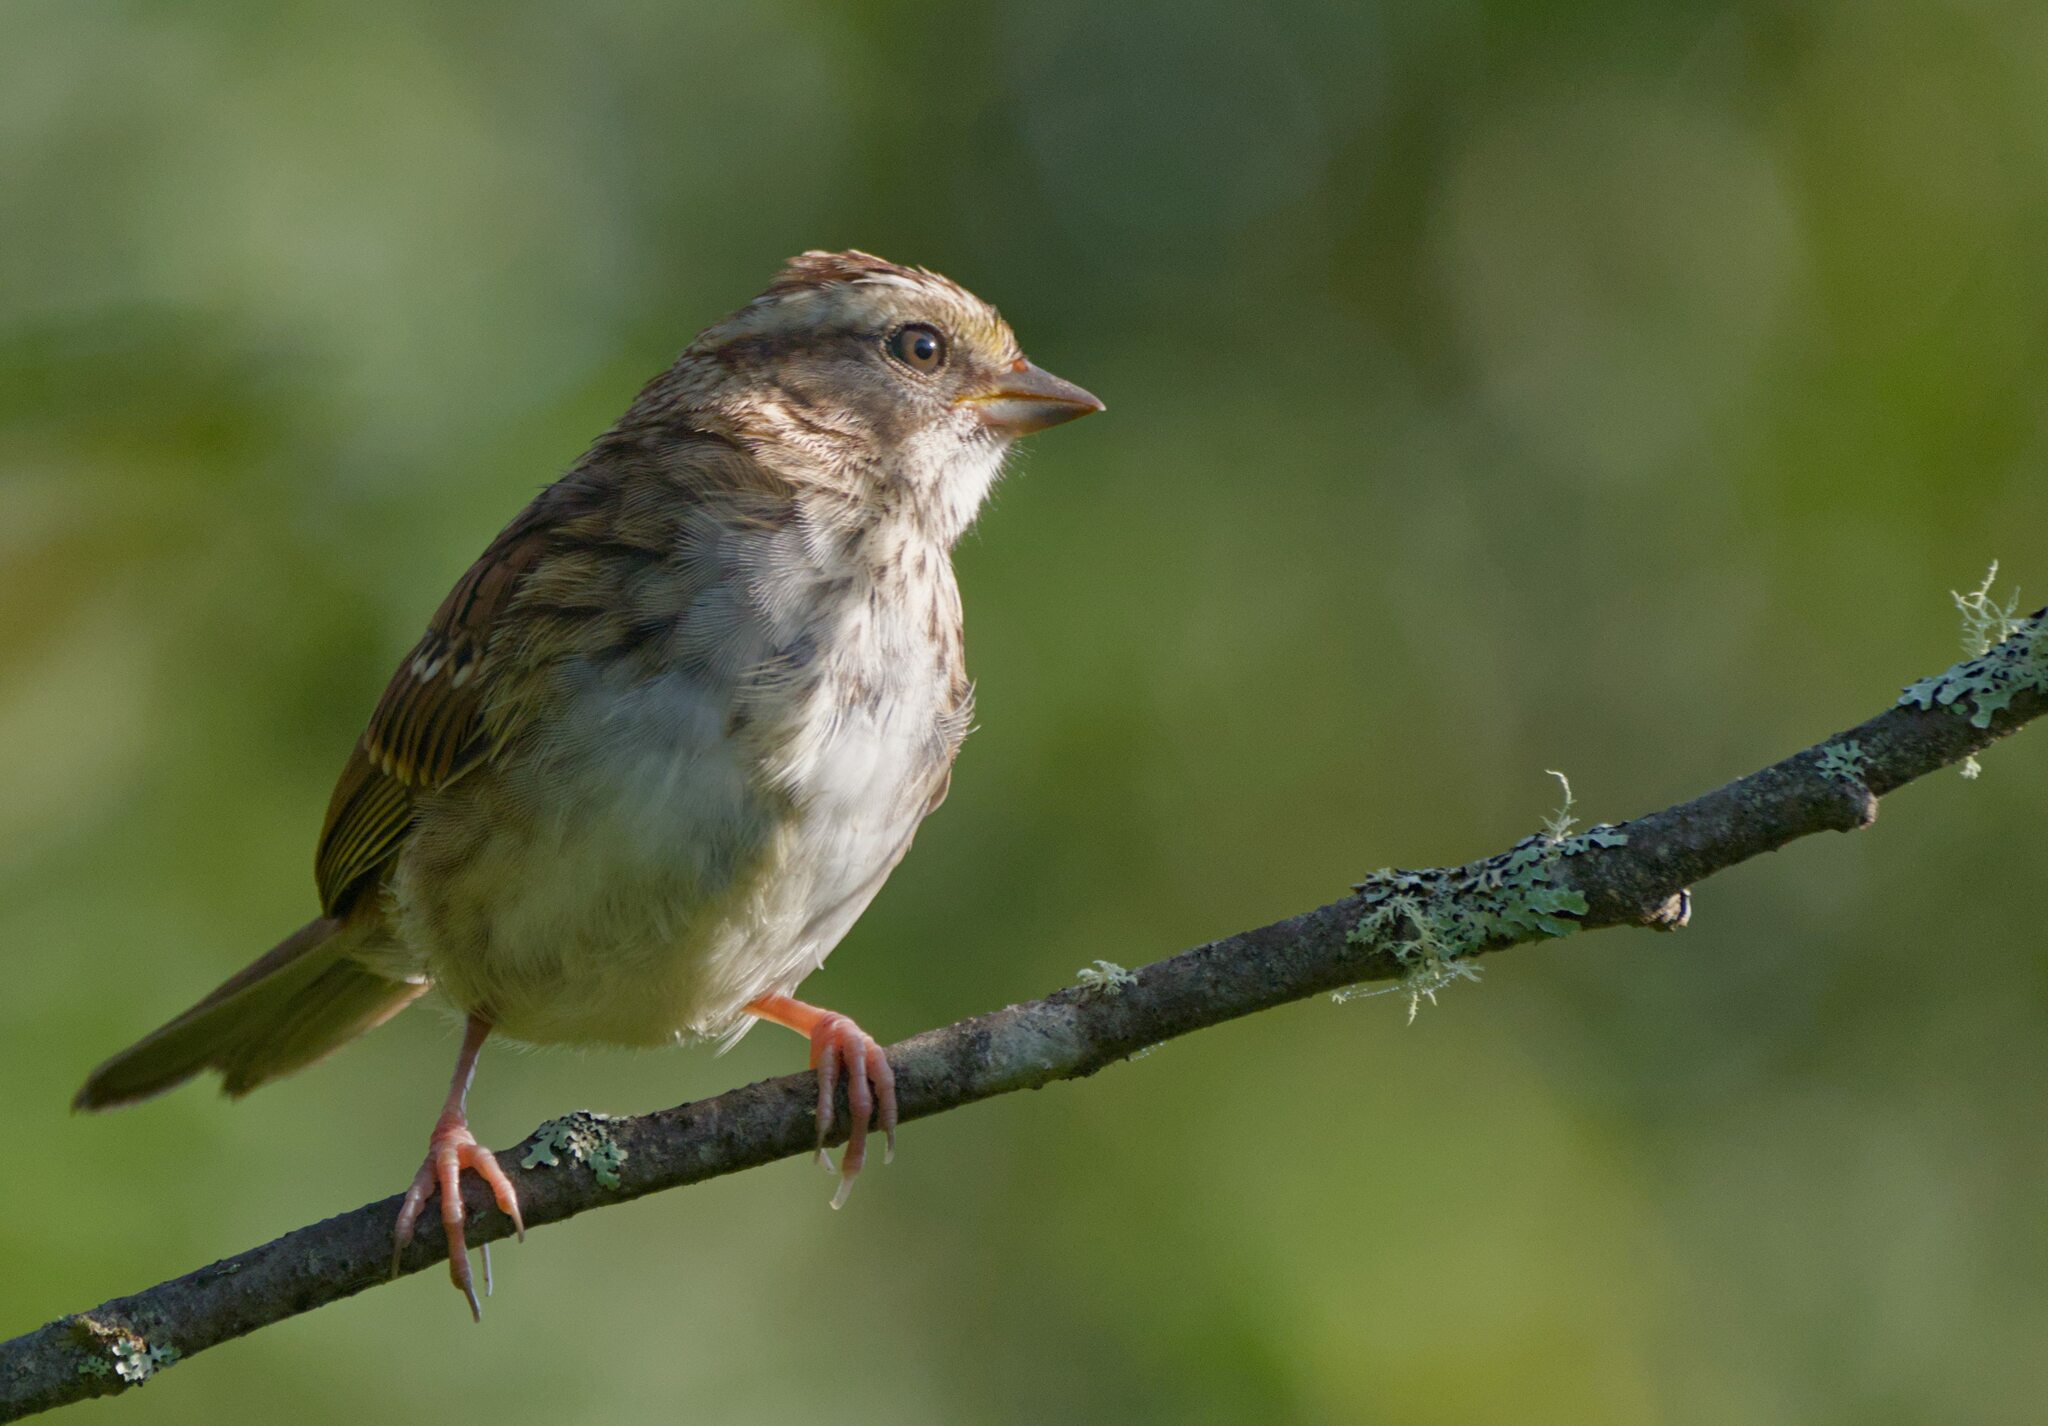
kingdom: Animalia
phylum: Chordata
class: Aves
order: Passeriformes
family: Passerellidae
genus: Zonotrichia
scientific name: Zonotrichia albicollis
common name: White-throated sparrow
